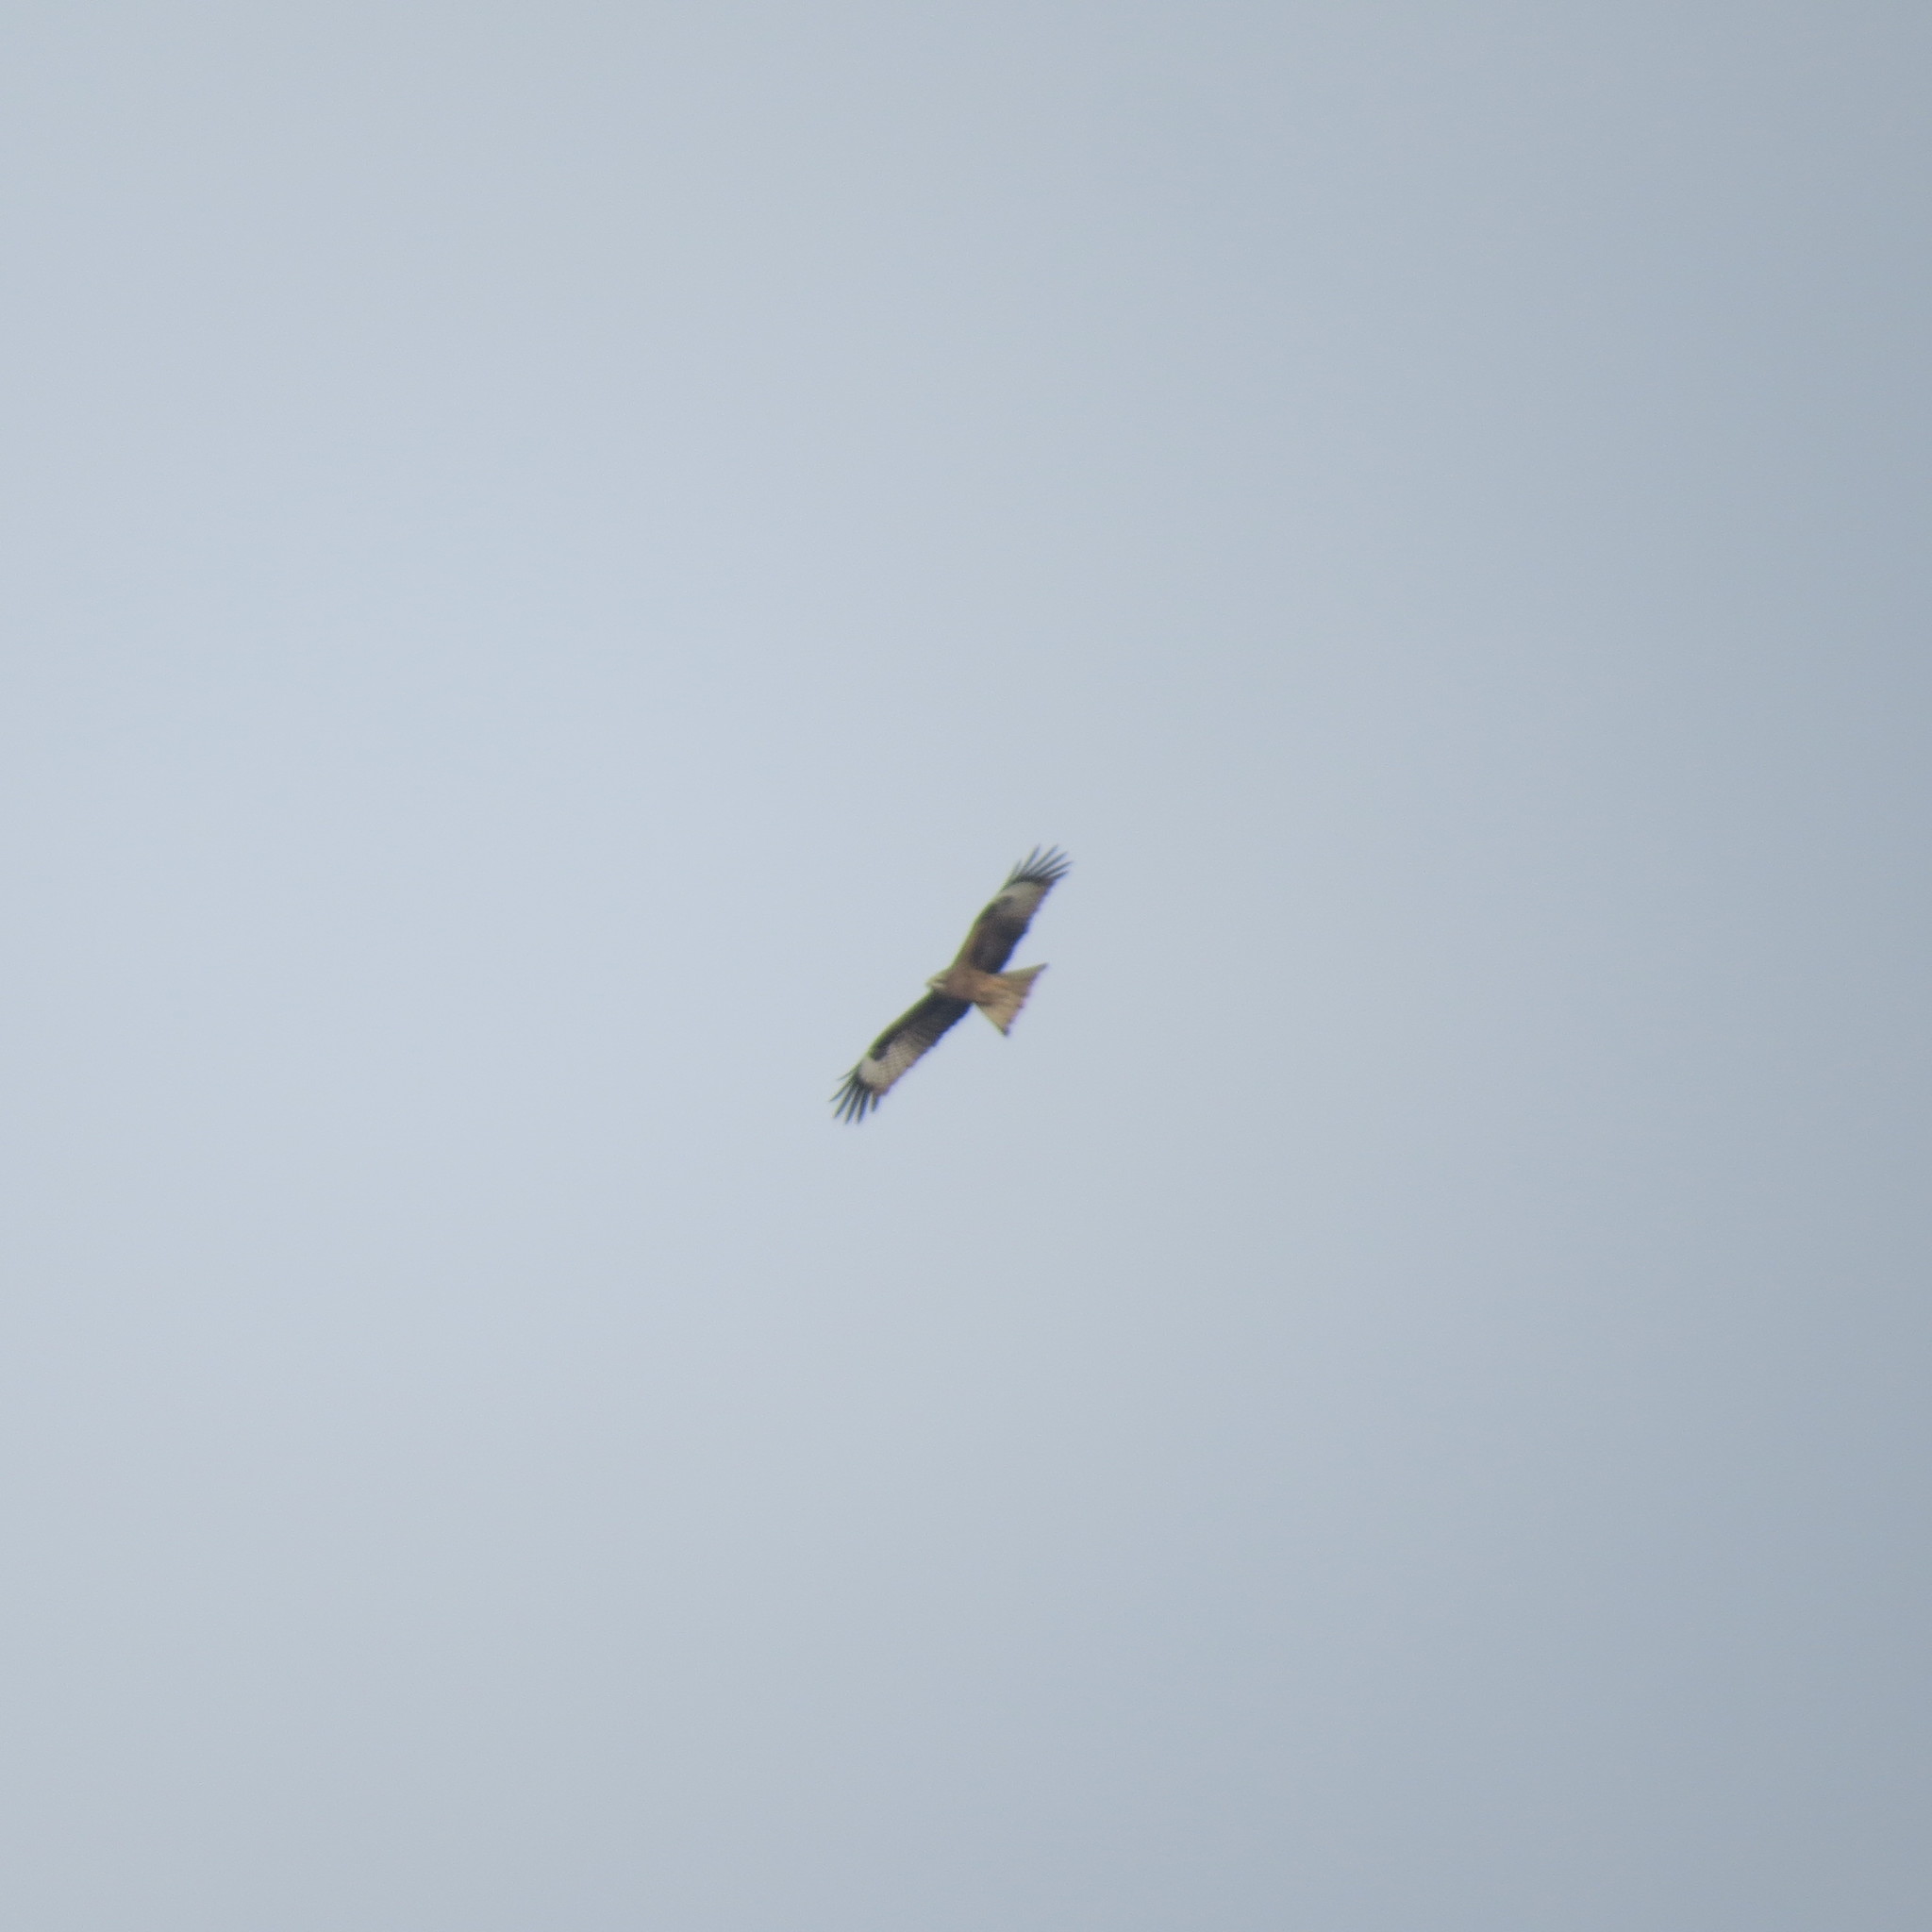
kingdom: Animalia
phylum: Chordata
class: Aves
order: Accipitriformes
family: Accipitridae
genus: Milvus
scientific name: Milvus migrans
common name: Black kite
